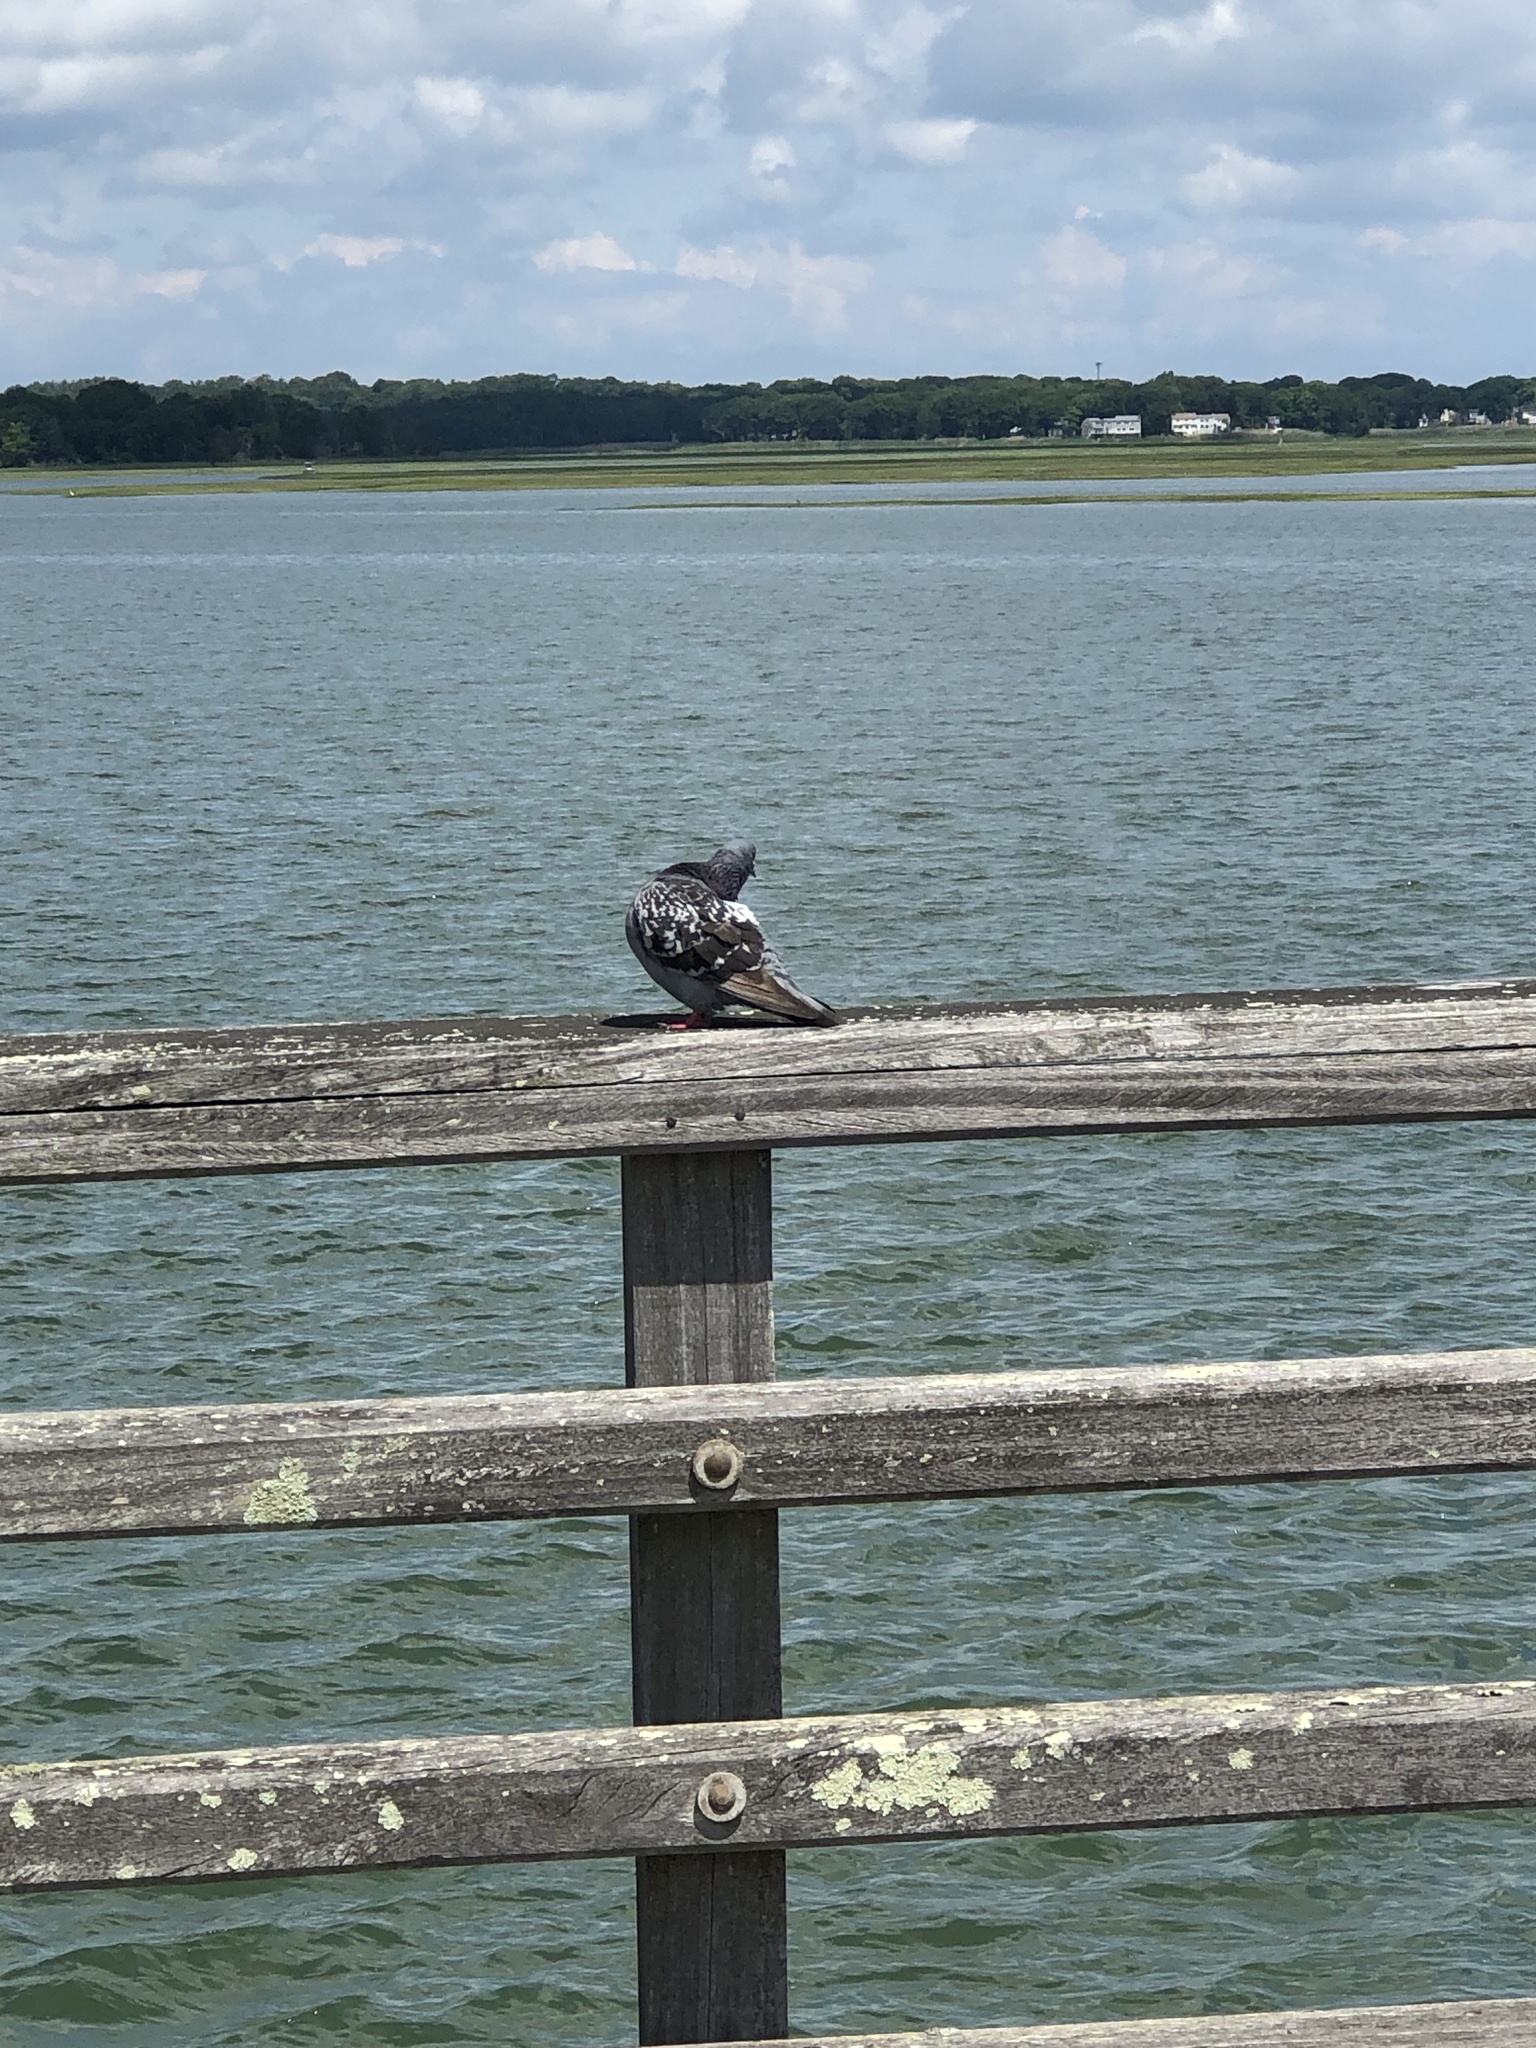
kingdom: Animalia
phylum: Chordata
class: Aves
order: Columbiformes
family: Columbidae
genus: Columba
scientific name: Columba livia
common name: Rock pigeon
